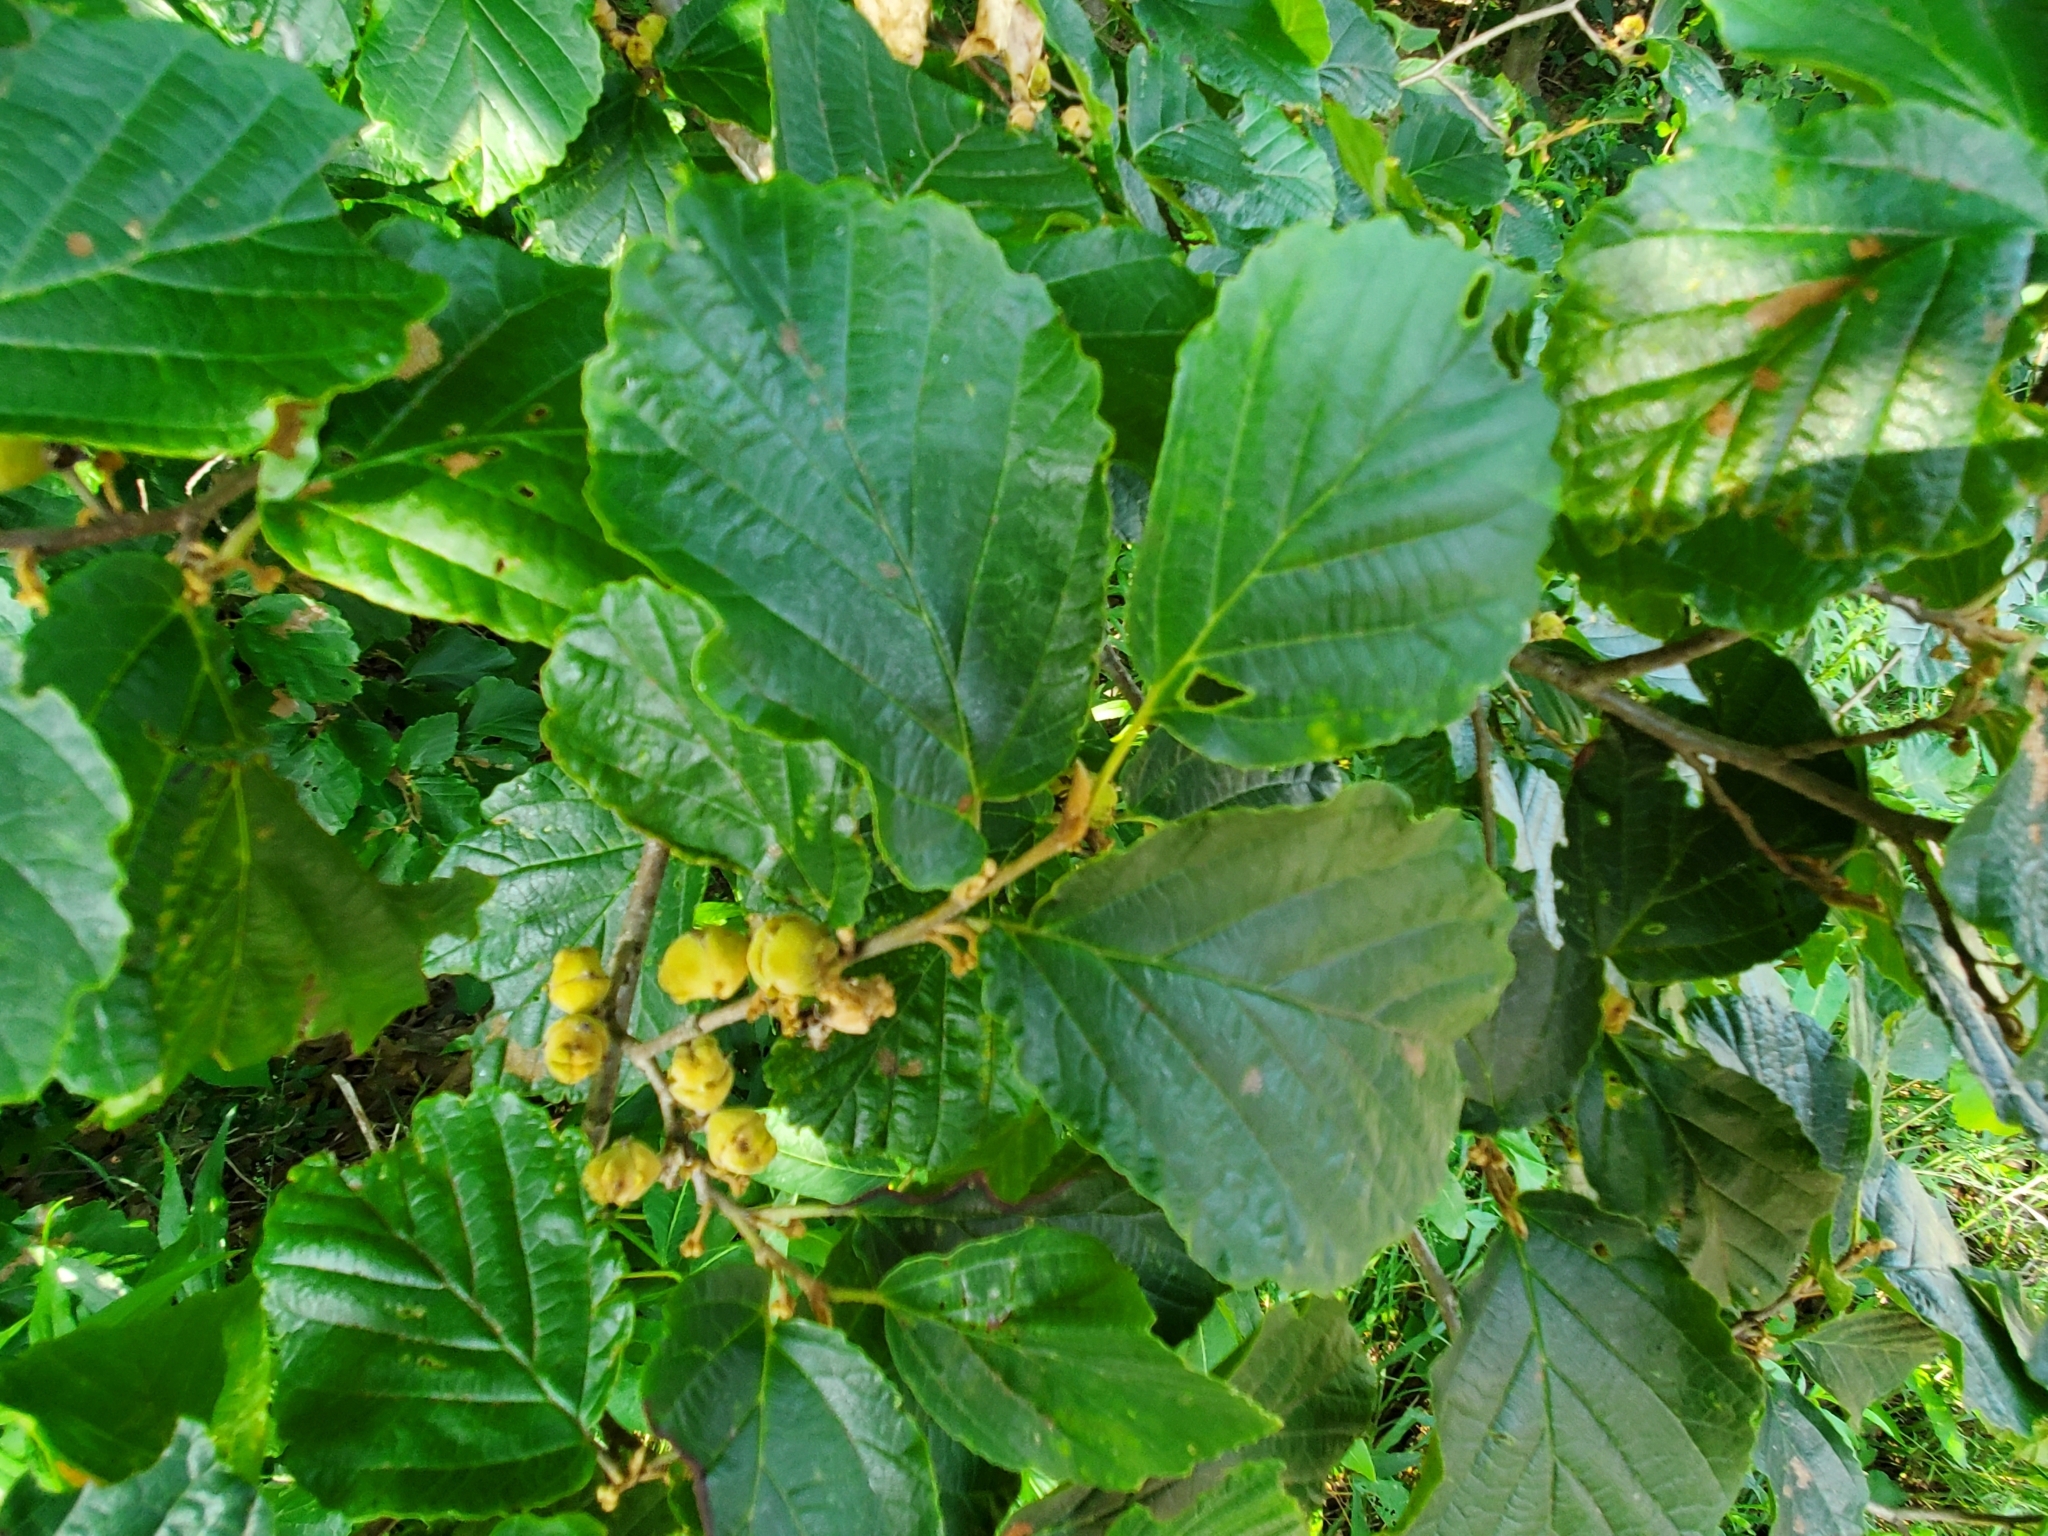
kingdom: Plantae
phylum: Tracheophyta
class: Magnoliopsida
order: Saxifragales
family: Hamamelidaceae
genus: Hamamelis
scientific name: Hamamelis virginiana
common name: Witch-hazel
